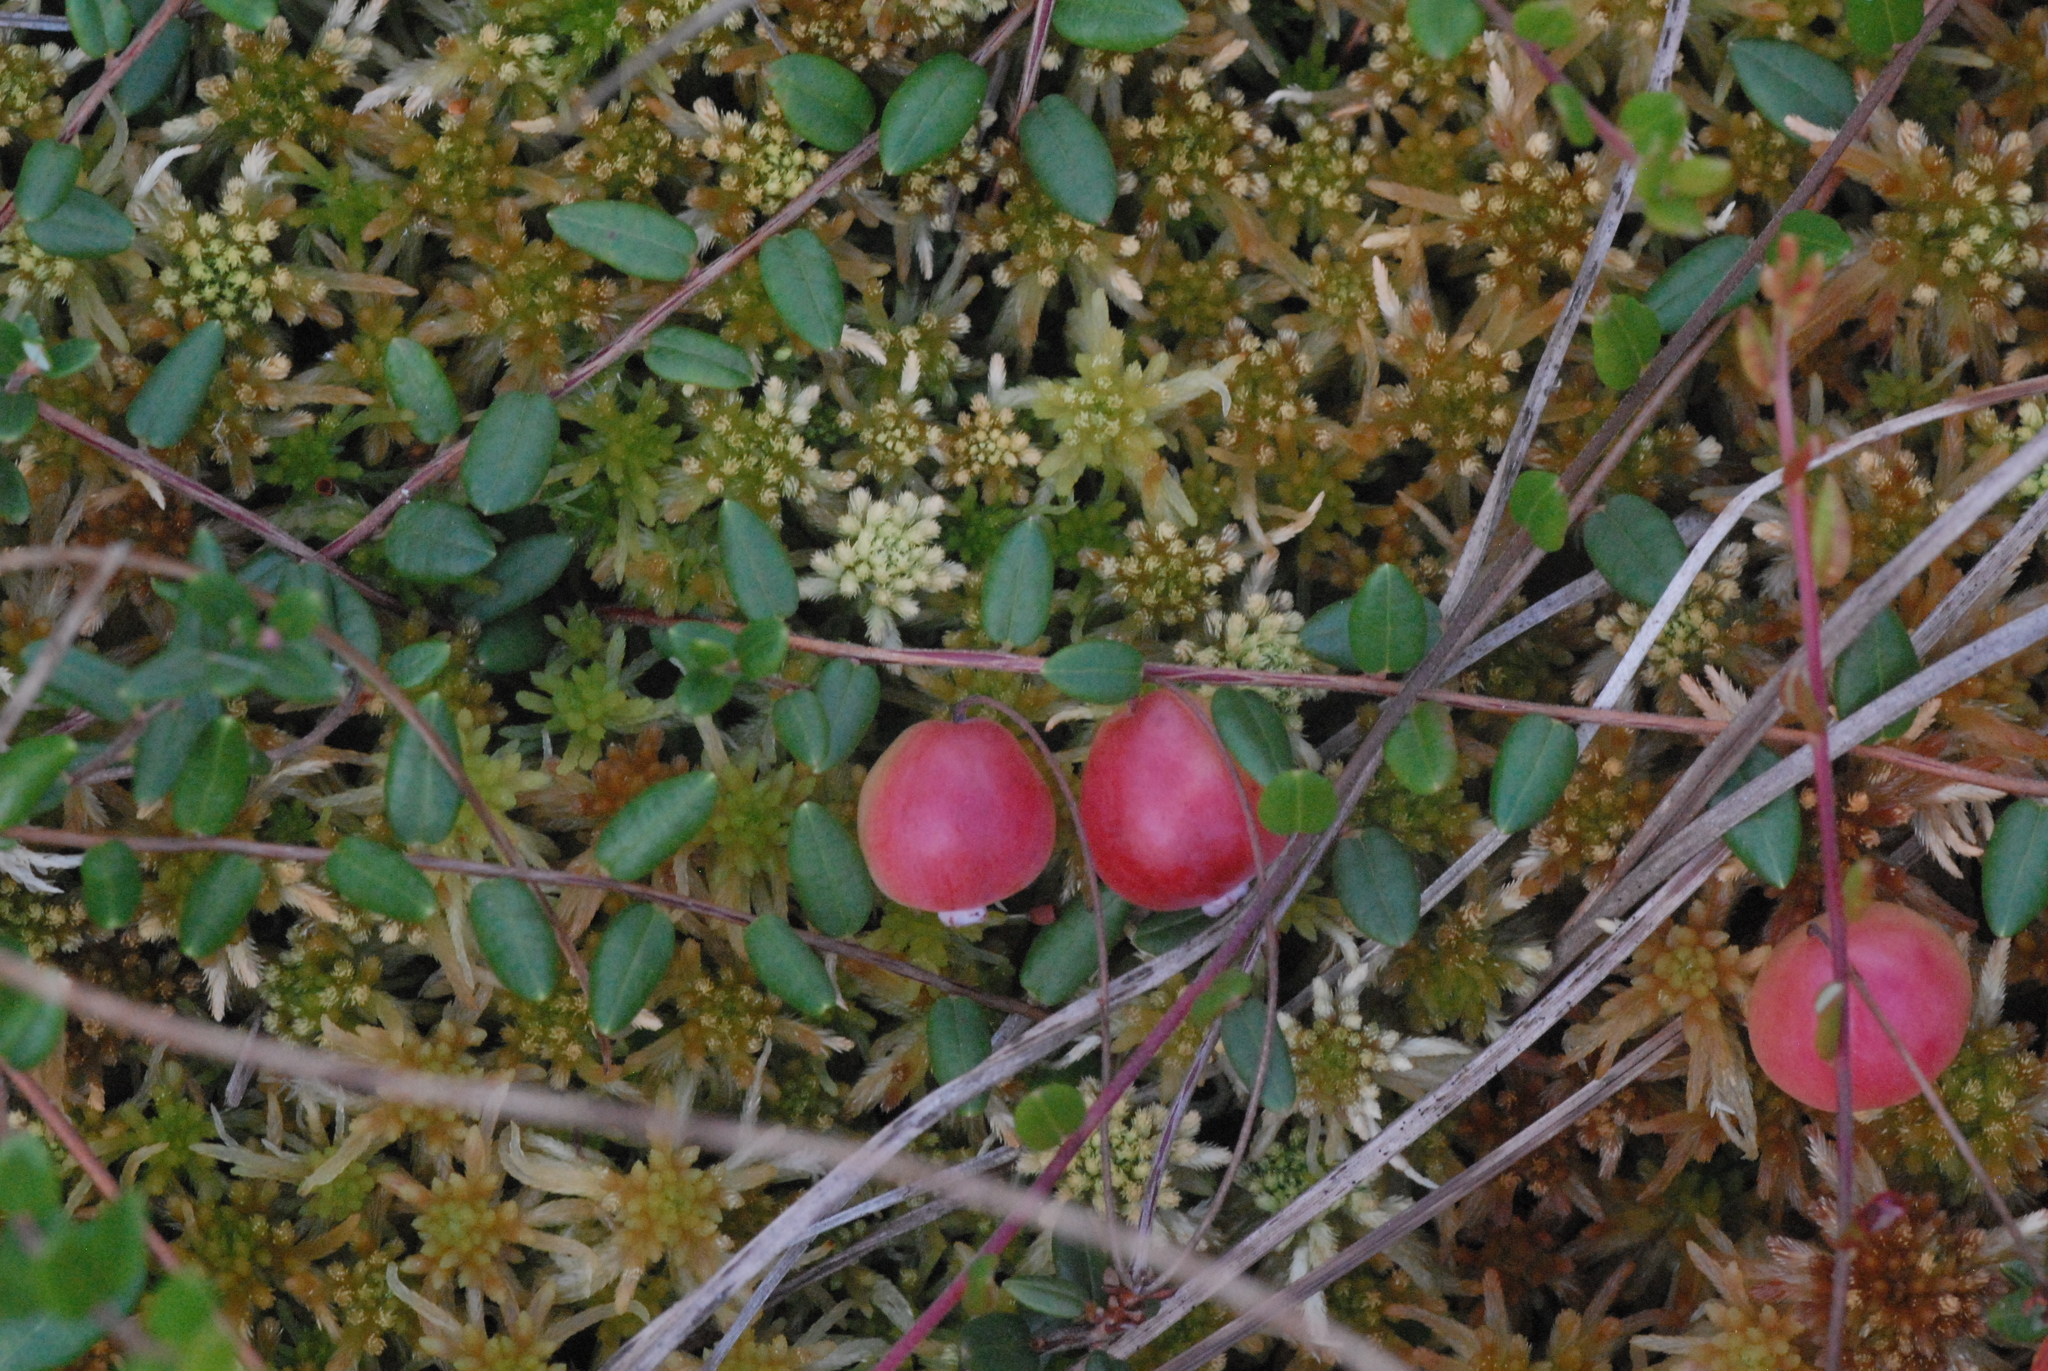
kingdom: Plantae
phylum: Tracheophyta
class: Magnoliopsida
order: Ericales
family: Ericaceae
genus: Vaccinium
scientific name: Vaccinium oxycoccos
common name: Cranberry
